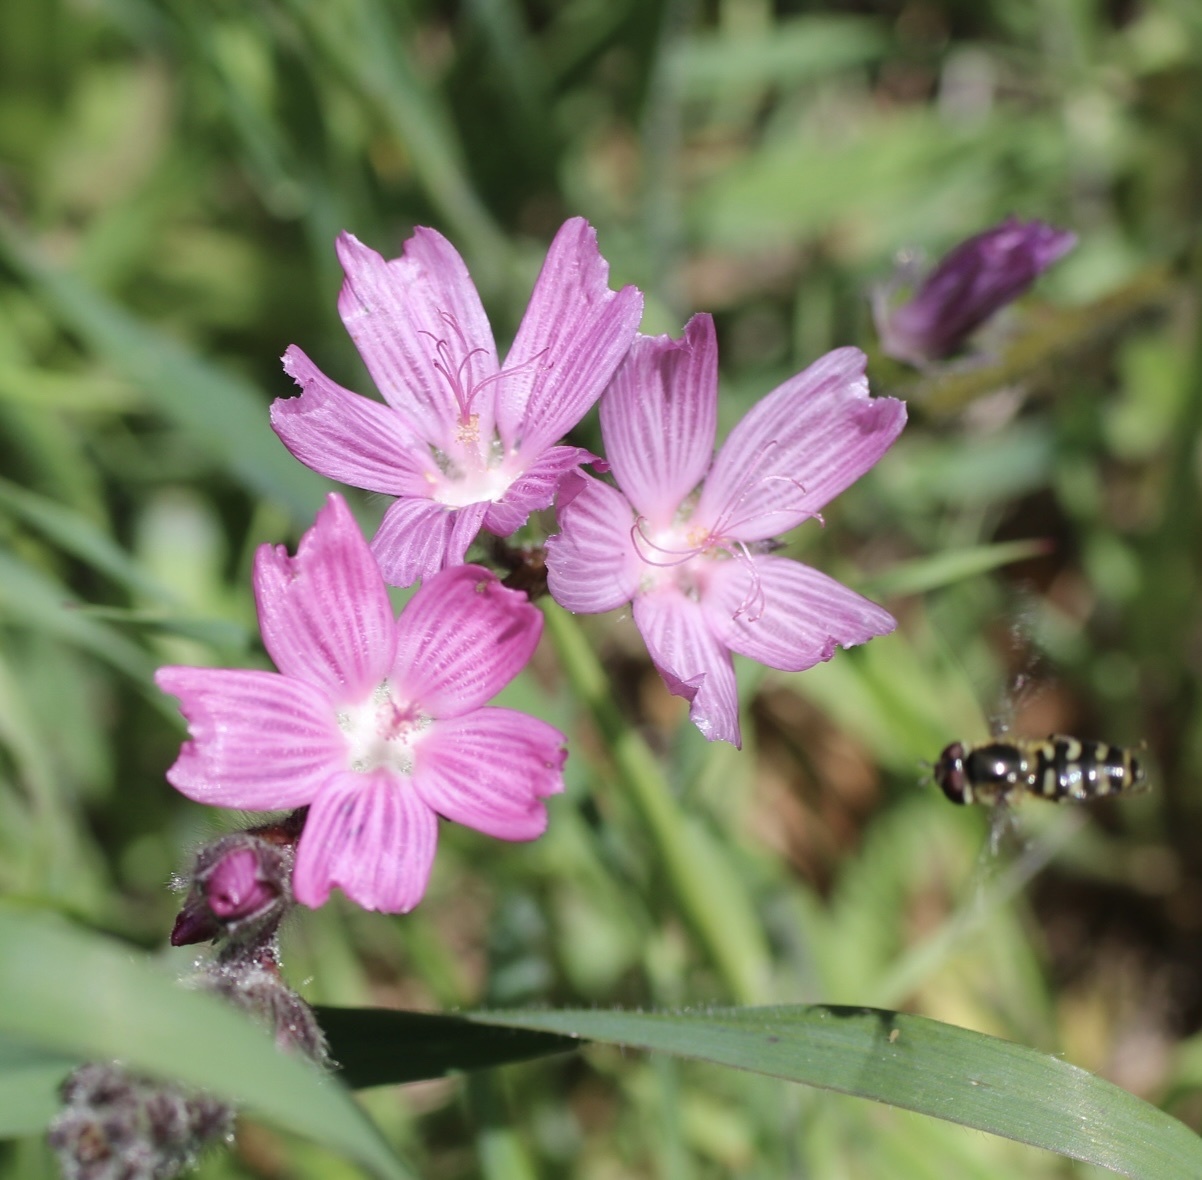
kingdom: Plantae
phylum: Tracheophyta
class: Magnoliopsida
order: Malvales
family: Malvaceae
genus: Sidalcea
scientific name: Sidalcea malviflora
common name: Greek mallow
